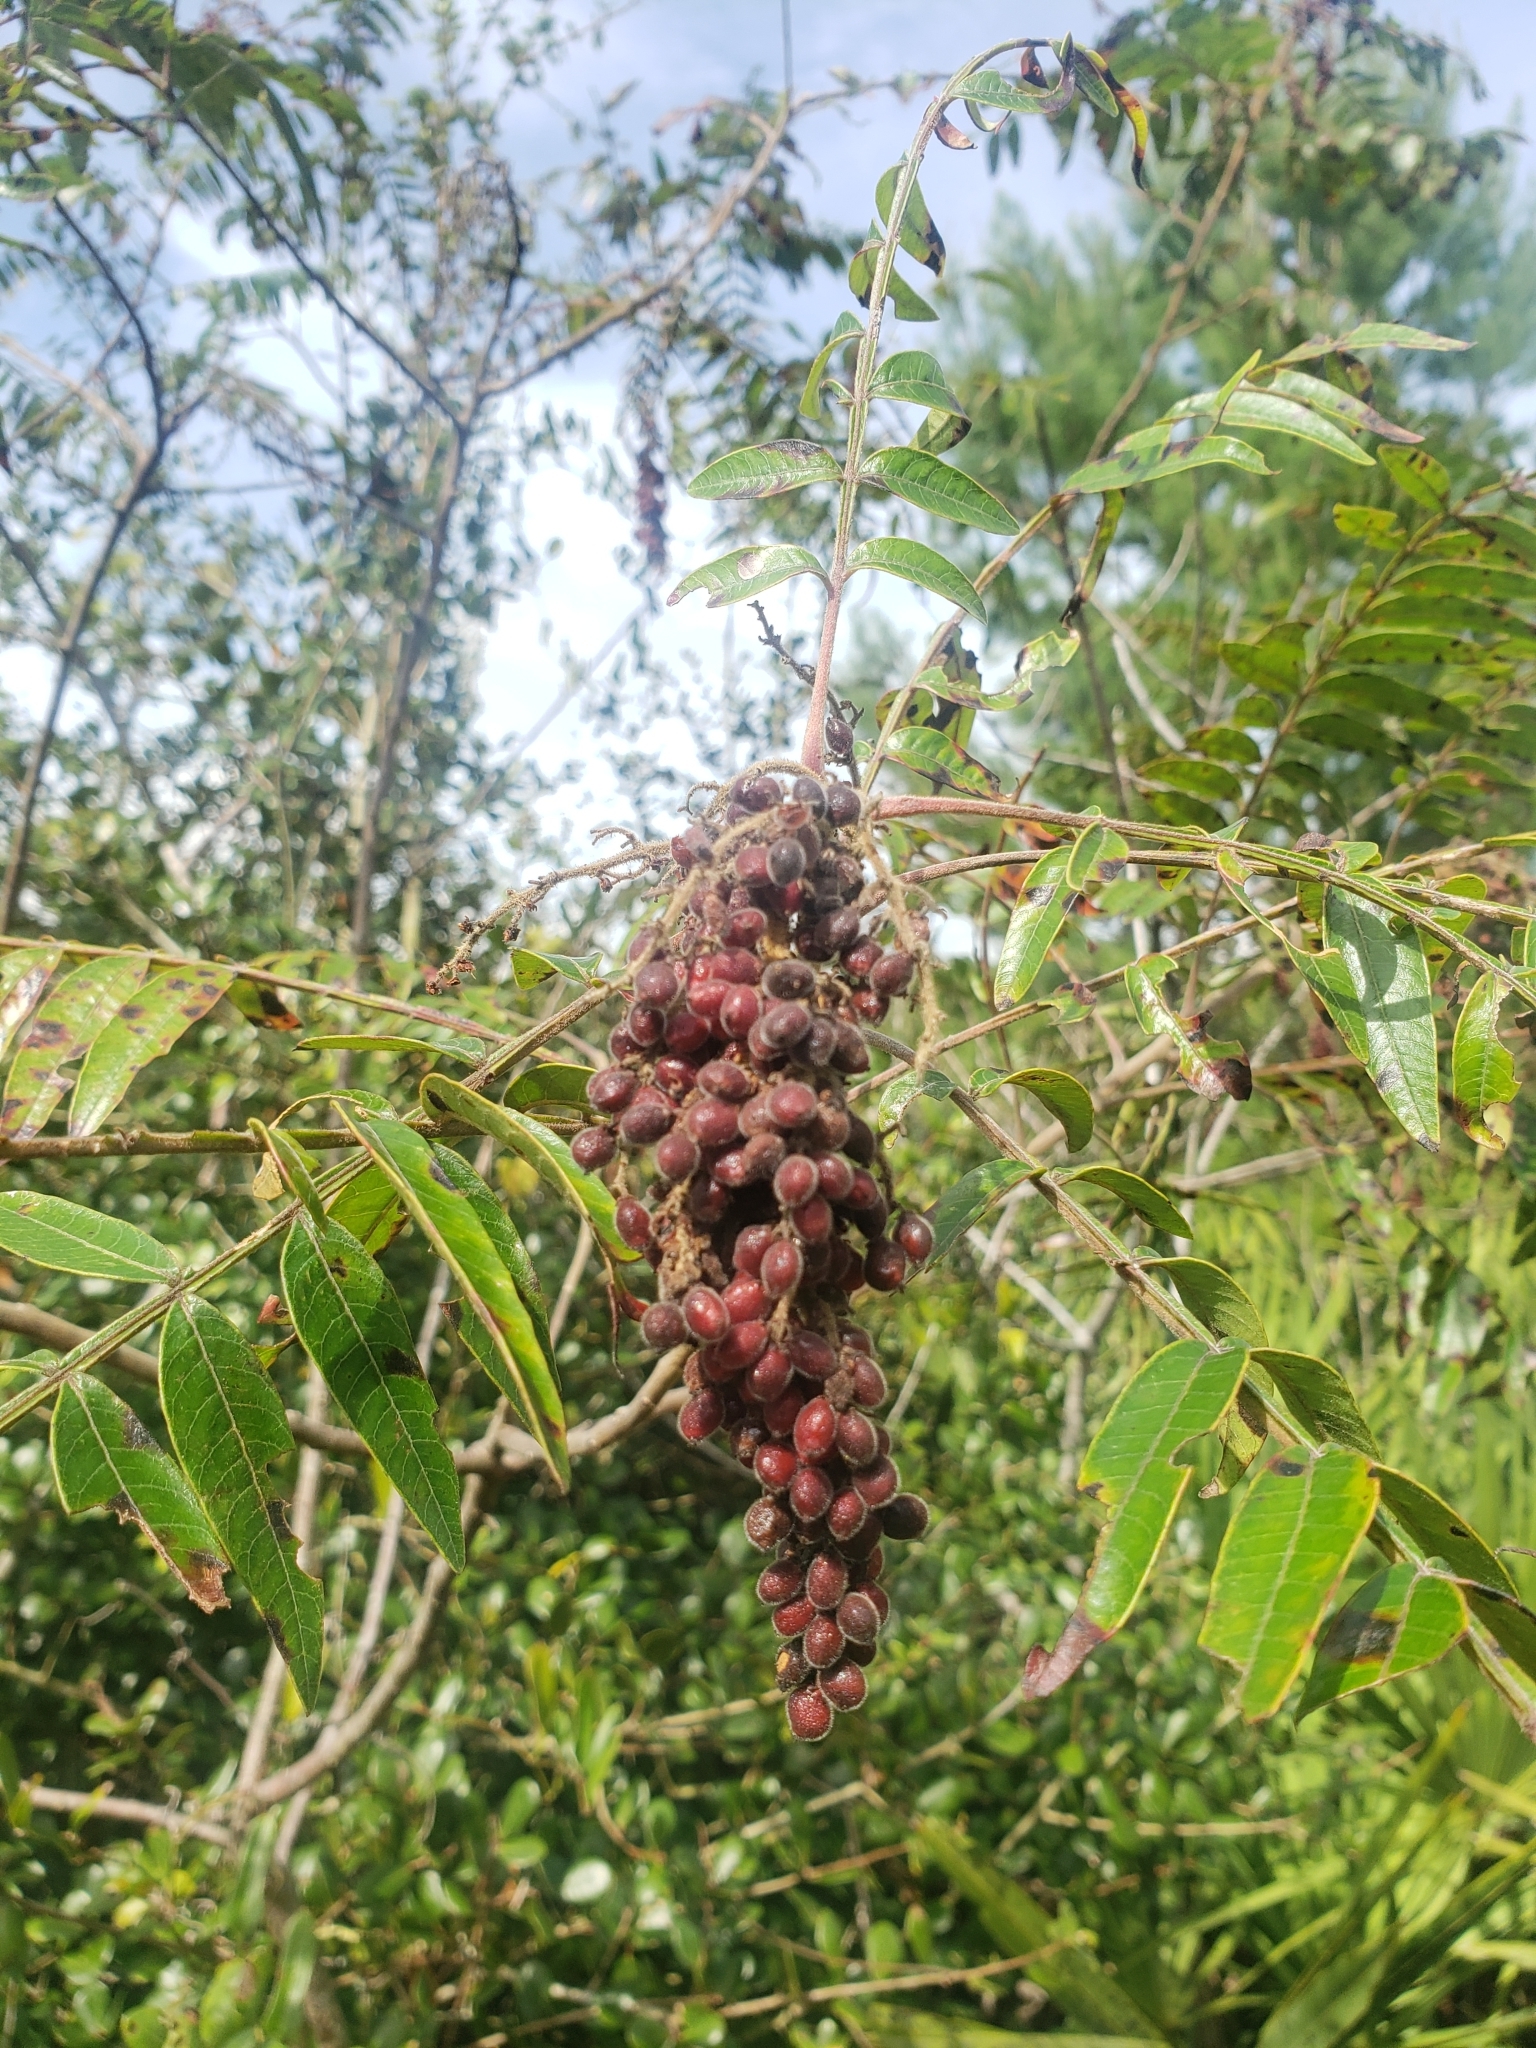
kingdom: Plantae
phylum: Tracheophyta
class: Magnoliopsida
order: Sapindales
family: Anacardiaceae
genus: Rhus
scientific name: Rhus copallina
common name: Shining sumac
